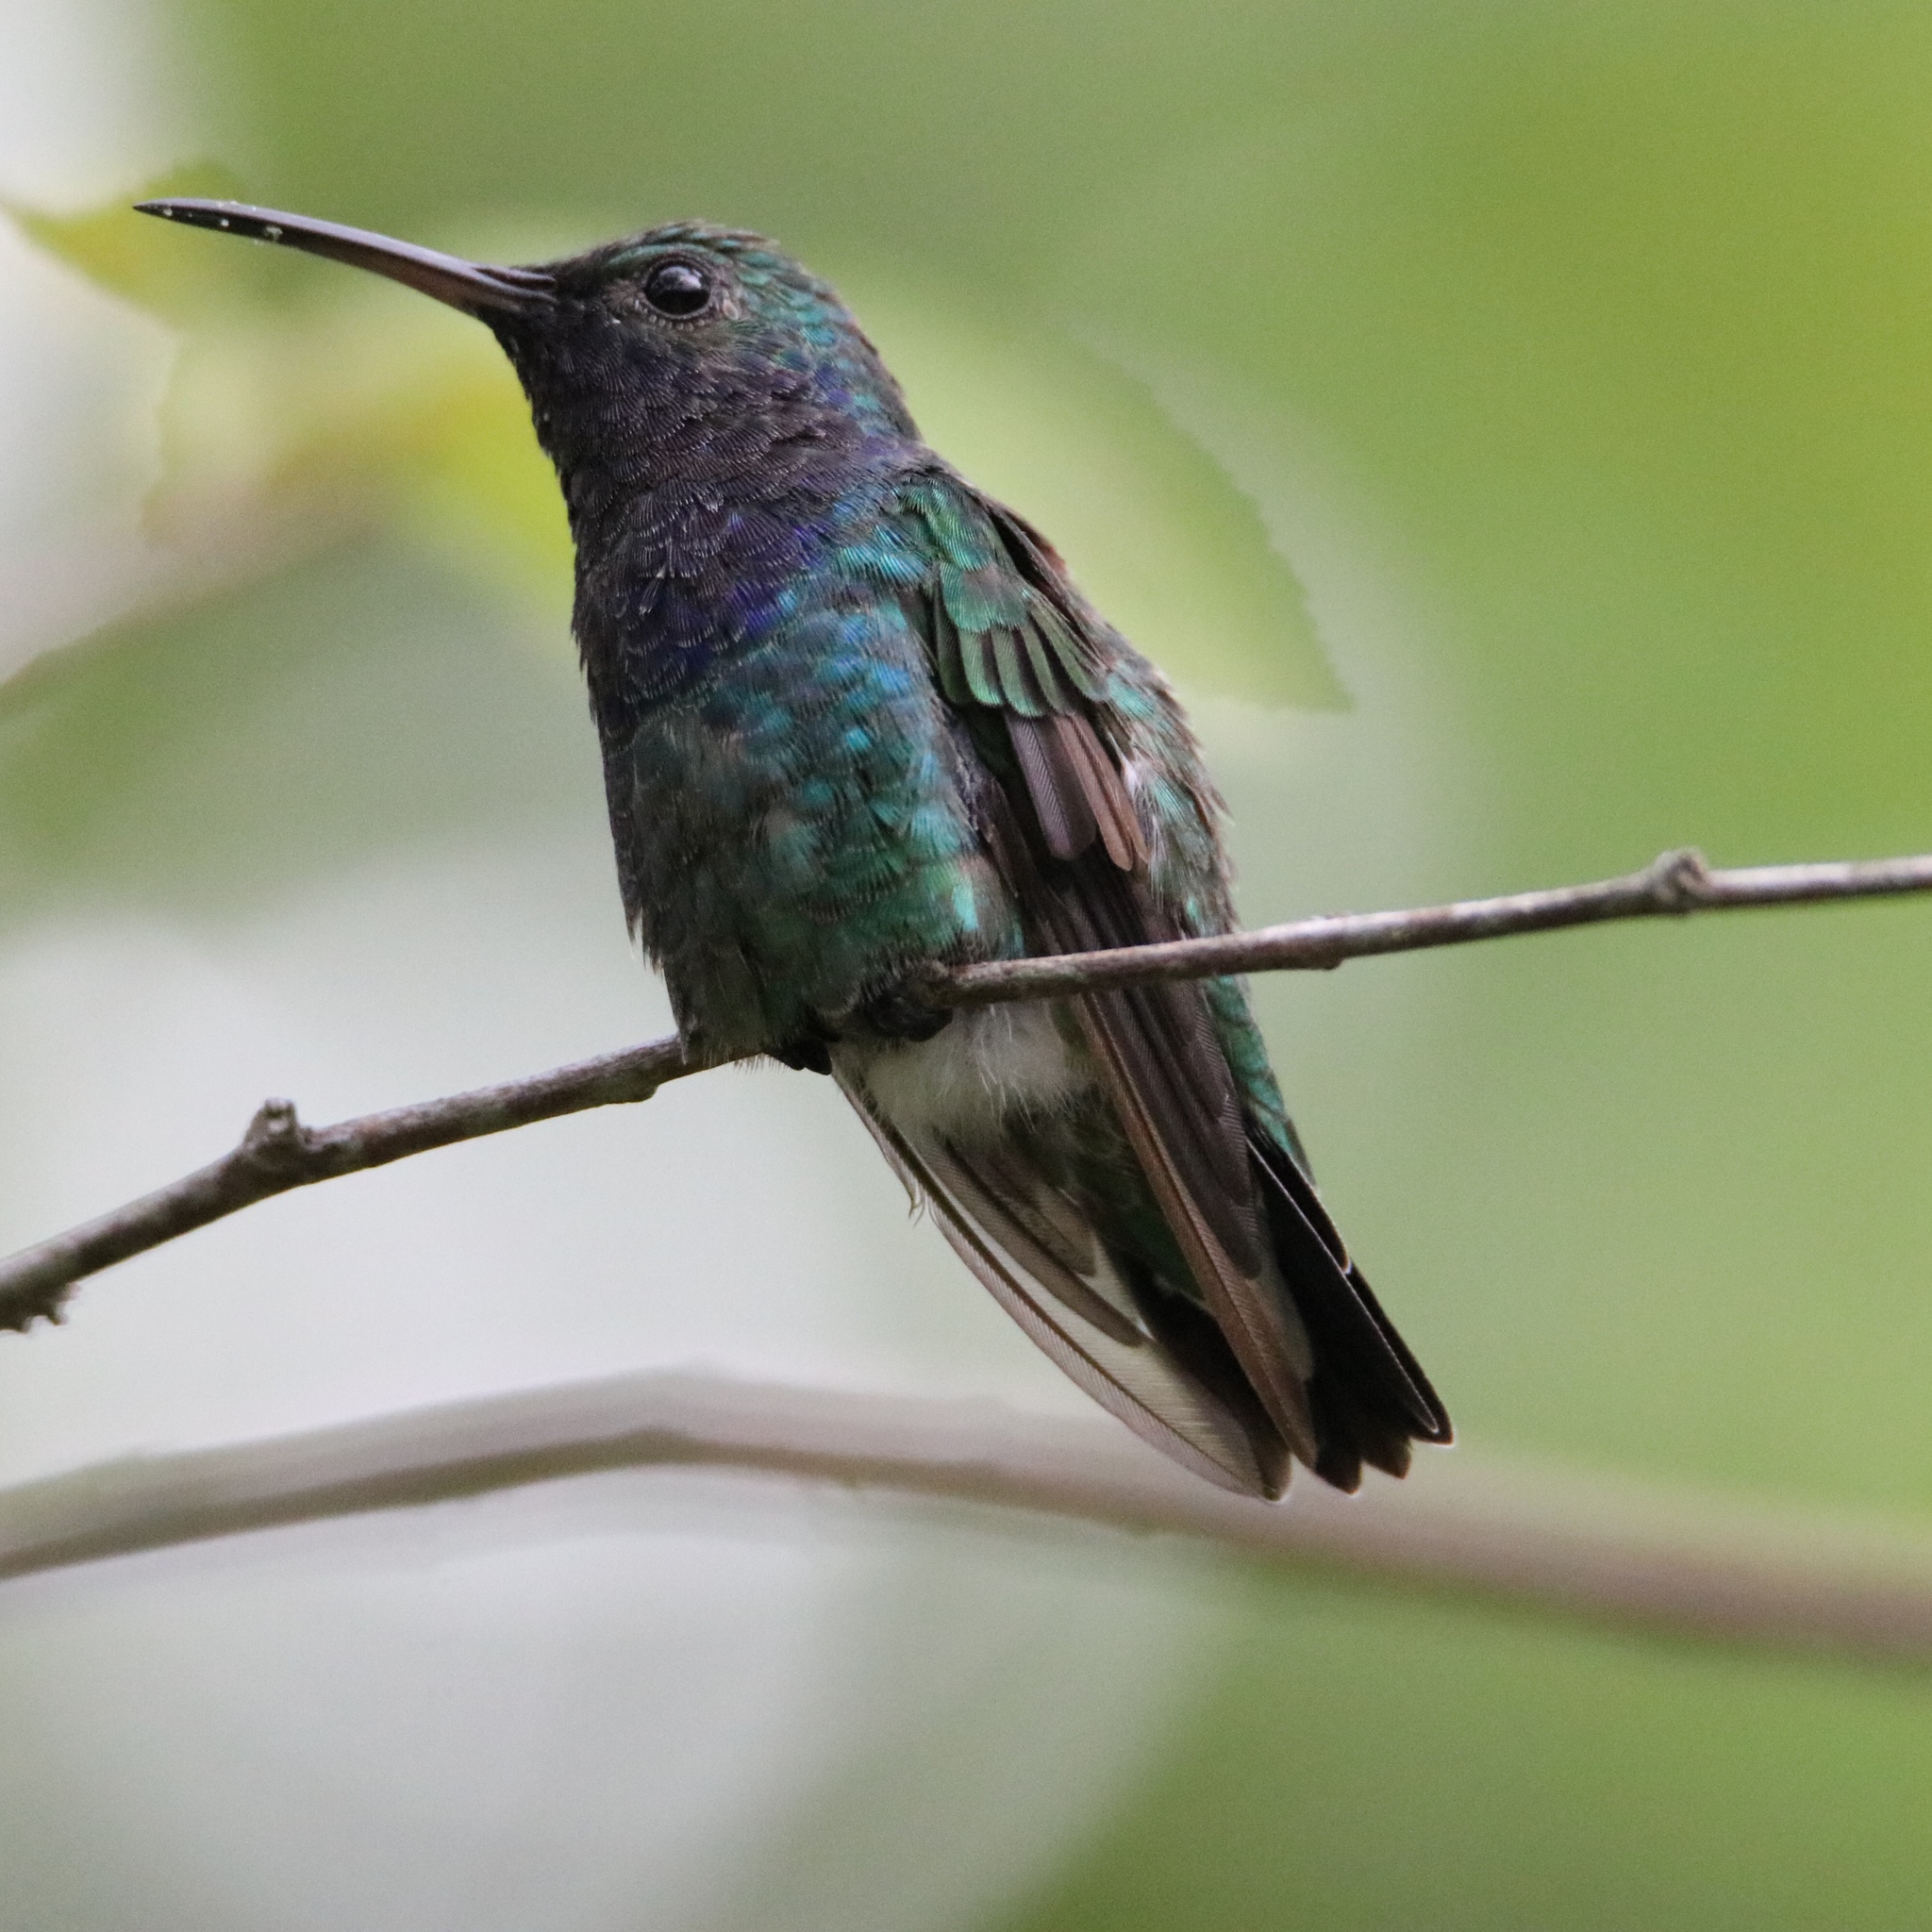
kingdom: Animalia
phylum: Chordata
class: Aves
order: Apodiformes
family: Trochilidae
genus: Chrysuronia
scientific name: Chrysuronia coeruleogularis
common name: Sapphire-throated hummingbird
